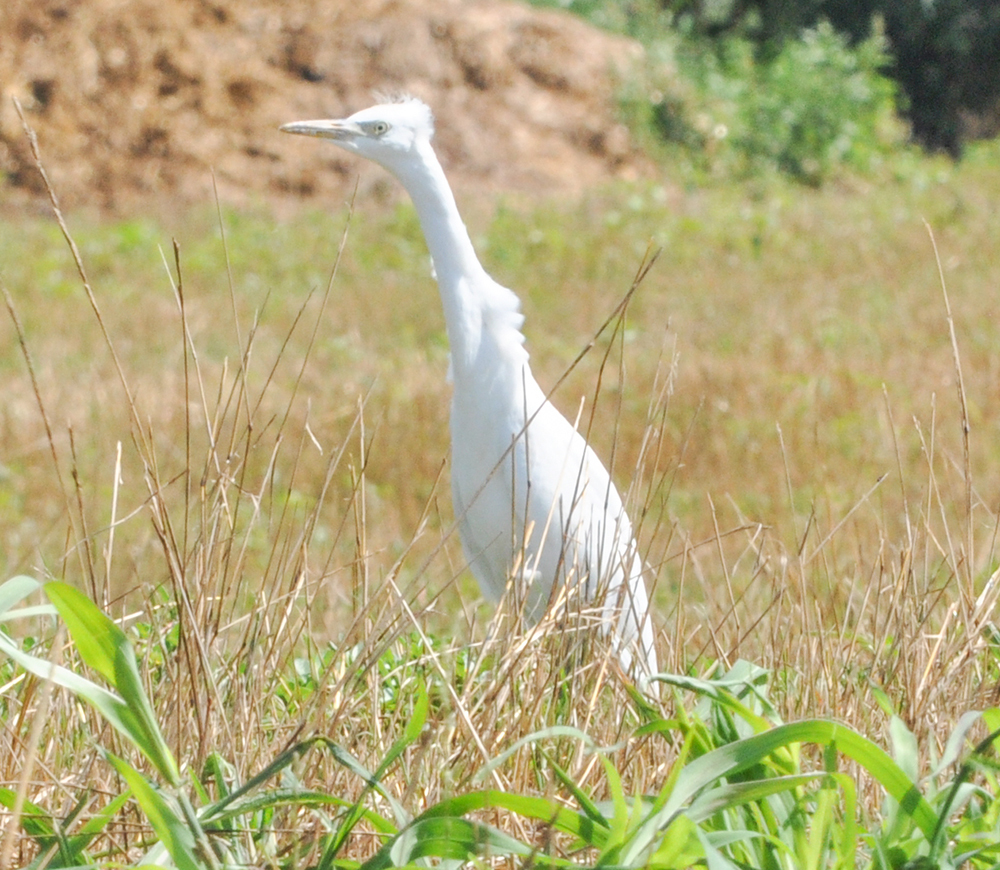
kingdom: Animalia
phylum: Chordata
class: Aves
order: Pelecaniformes
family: Ardeidae
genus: Ardea
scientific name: Ardea alba
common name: Great egret
